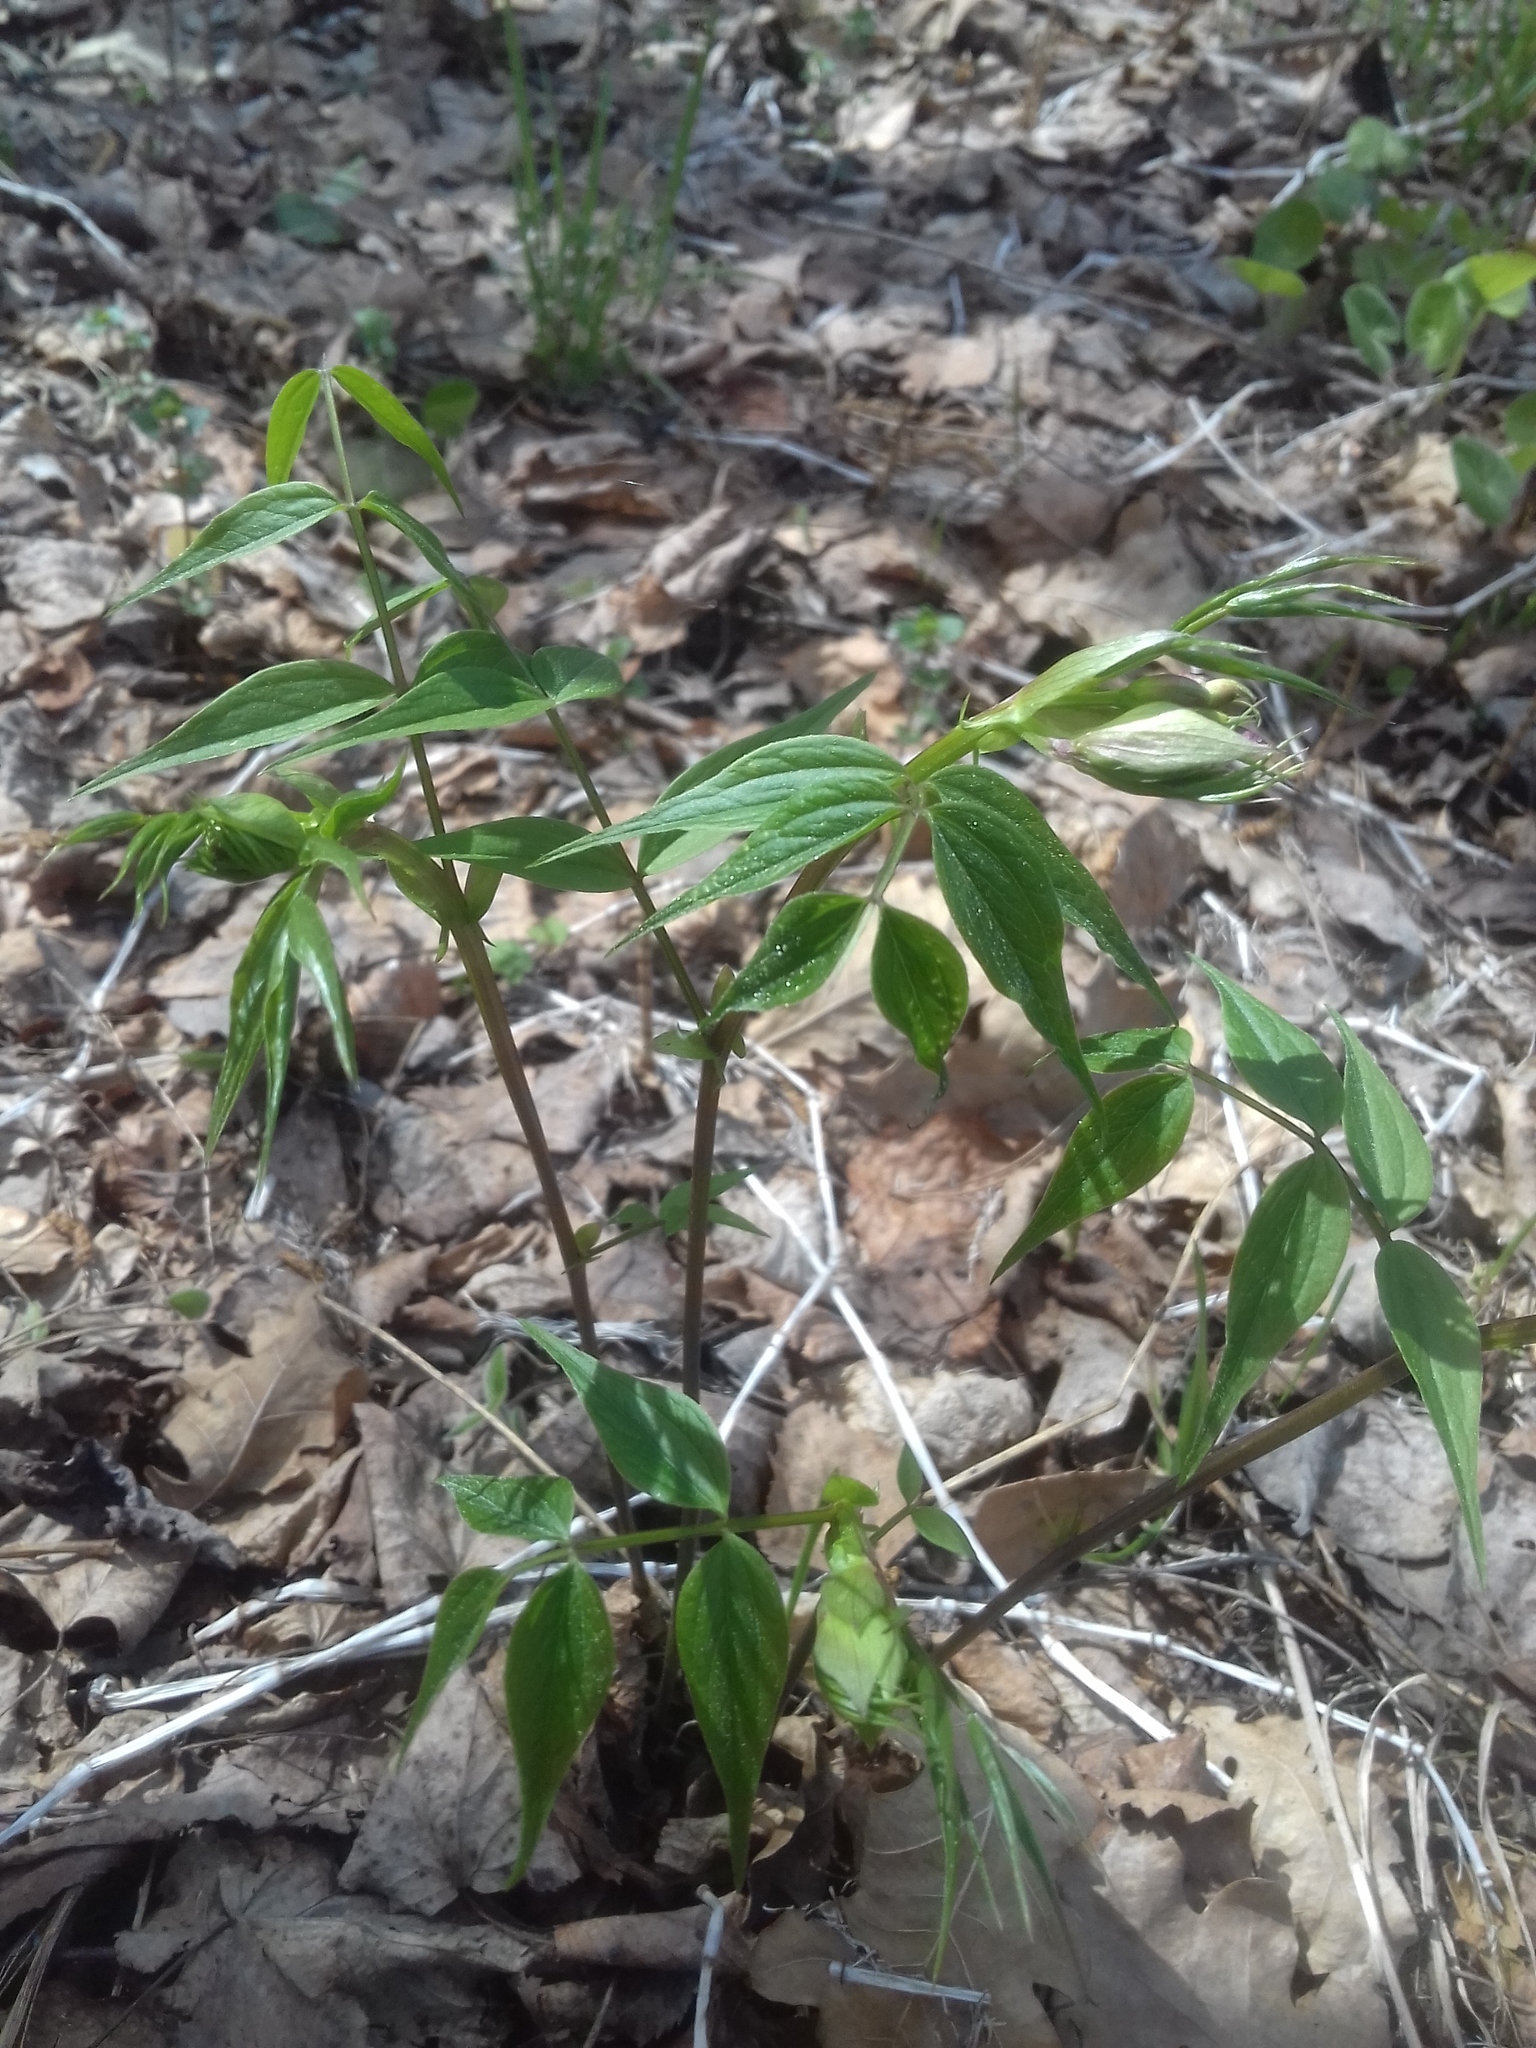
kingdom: Plantae
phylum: Tracheophyta
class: Magnoliopsida
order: Fabales
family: Fabaceae
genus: Lathyrus
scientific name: Lathyrus vernus
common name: Spring pea
